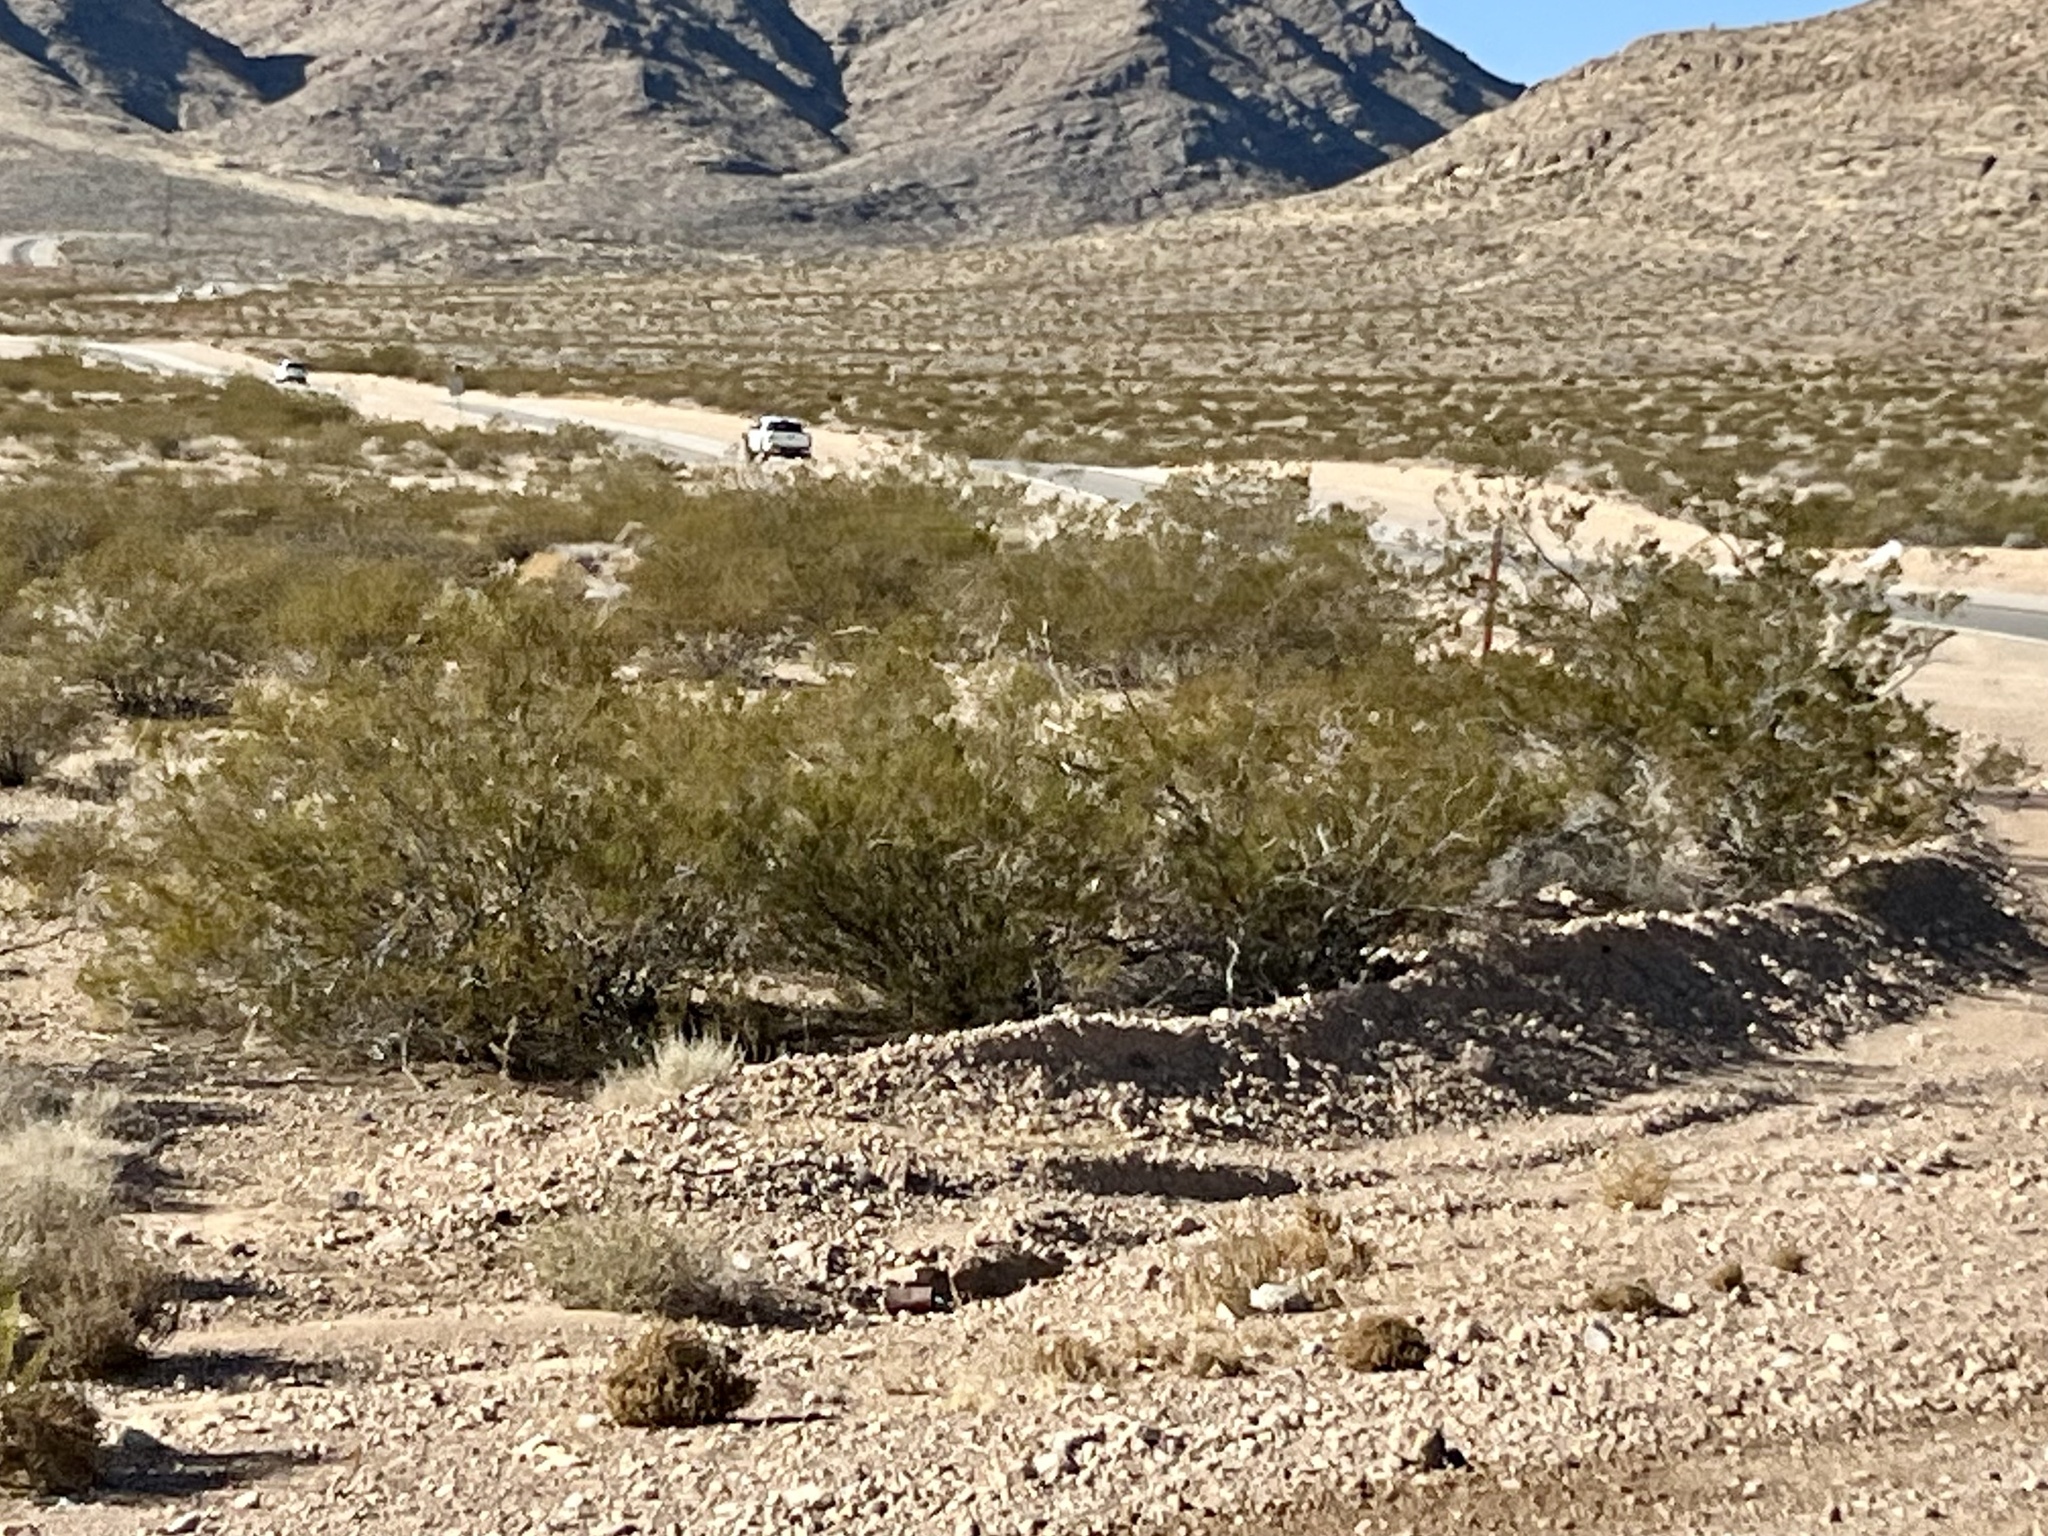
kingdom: Plantae
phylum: Tracheophyta
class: Magnoliopsida
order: Zygophyllales
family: Zygophyllaceae
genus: Larrea
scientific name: Larrea tridentata
